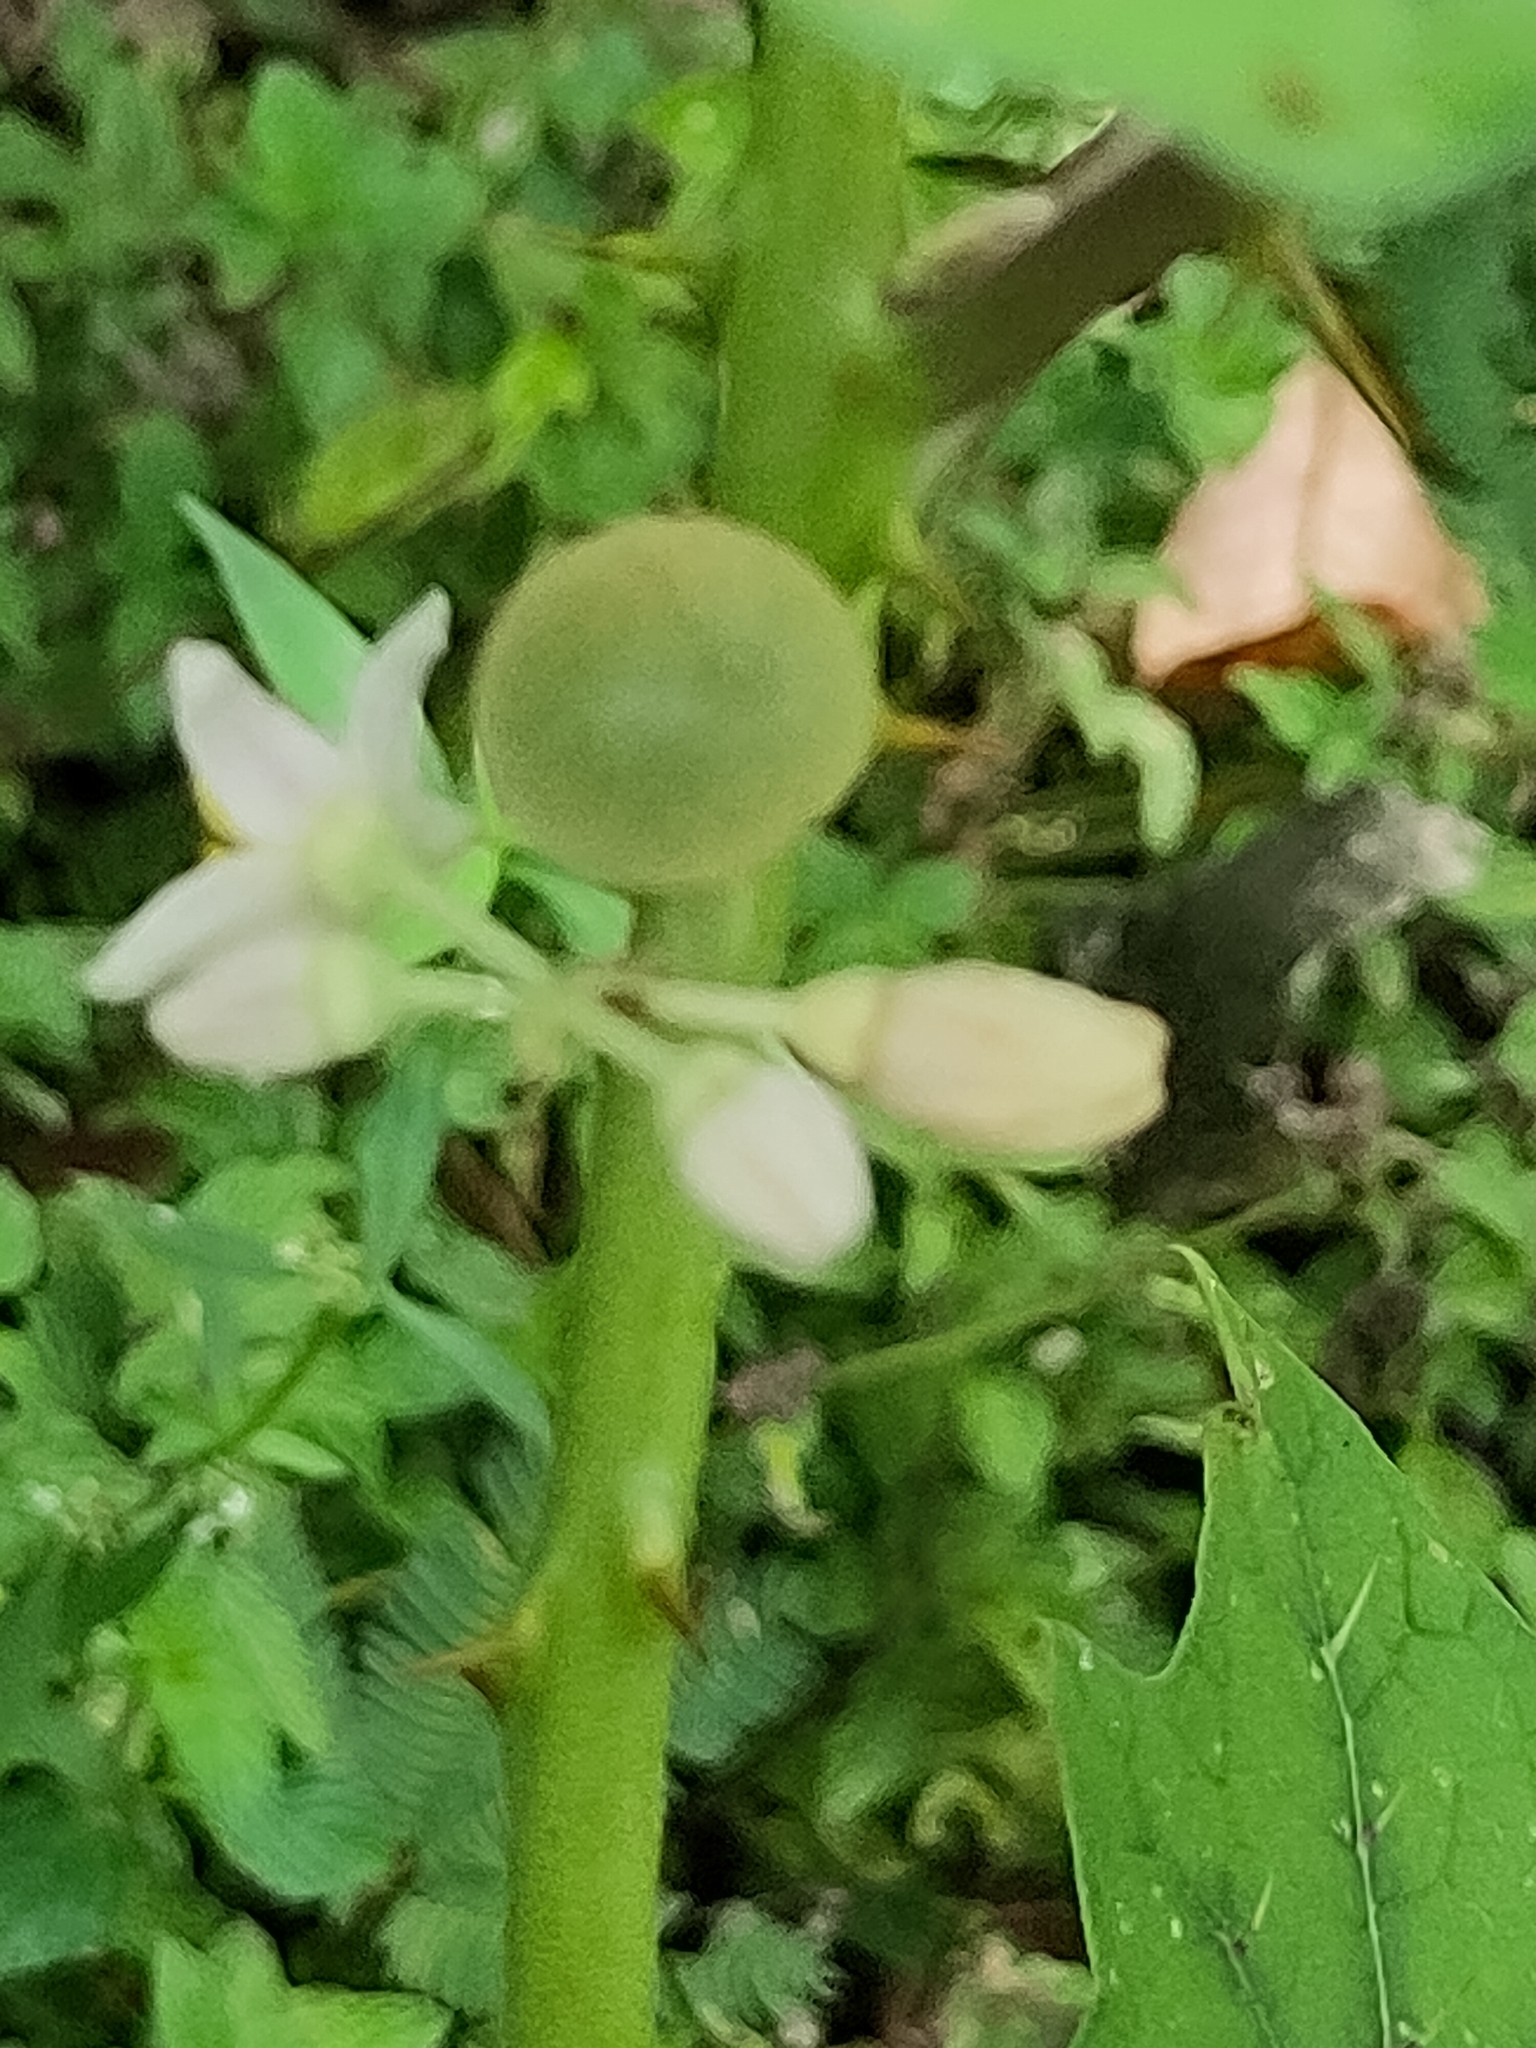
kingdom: Plantae
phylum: Tracheophyta
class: Magnoliopsida
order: Solanales
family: Solanaceae
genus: Solanum
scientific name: Solanum
